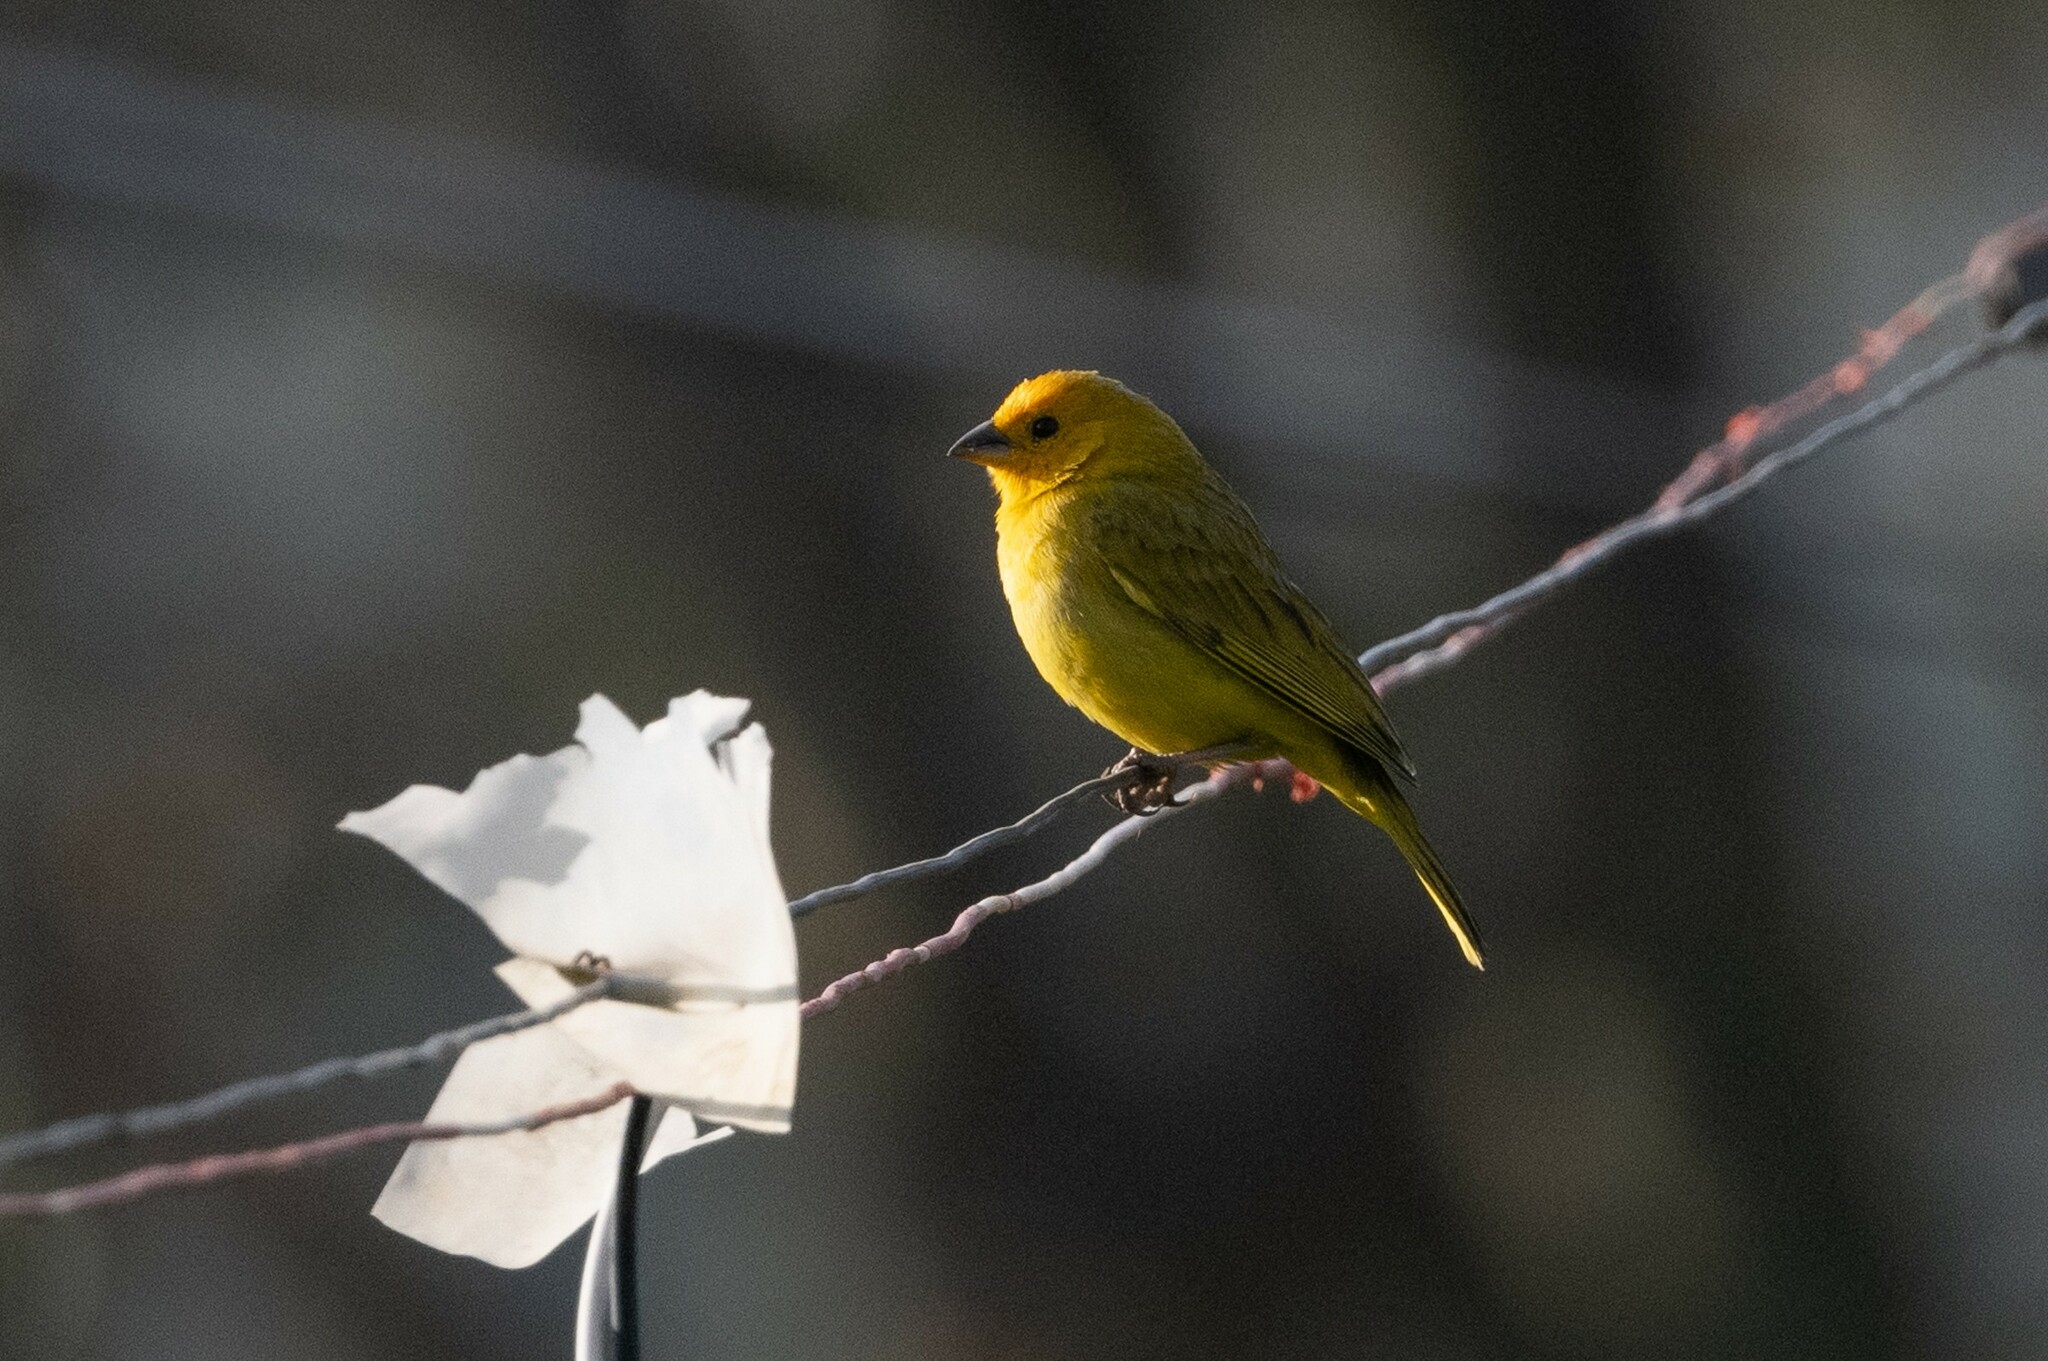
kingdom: Animalia
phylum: Chordata
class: Aves
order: Passeriformes
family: Thraupidae
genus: Sicalis
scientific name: Sicalis flaveola
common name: Saffron finch
